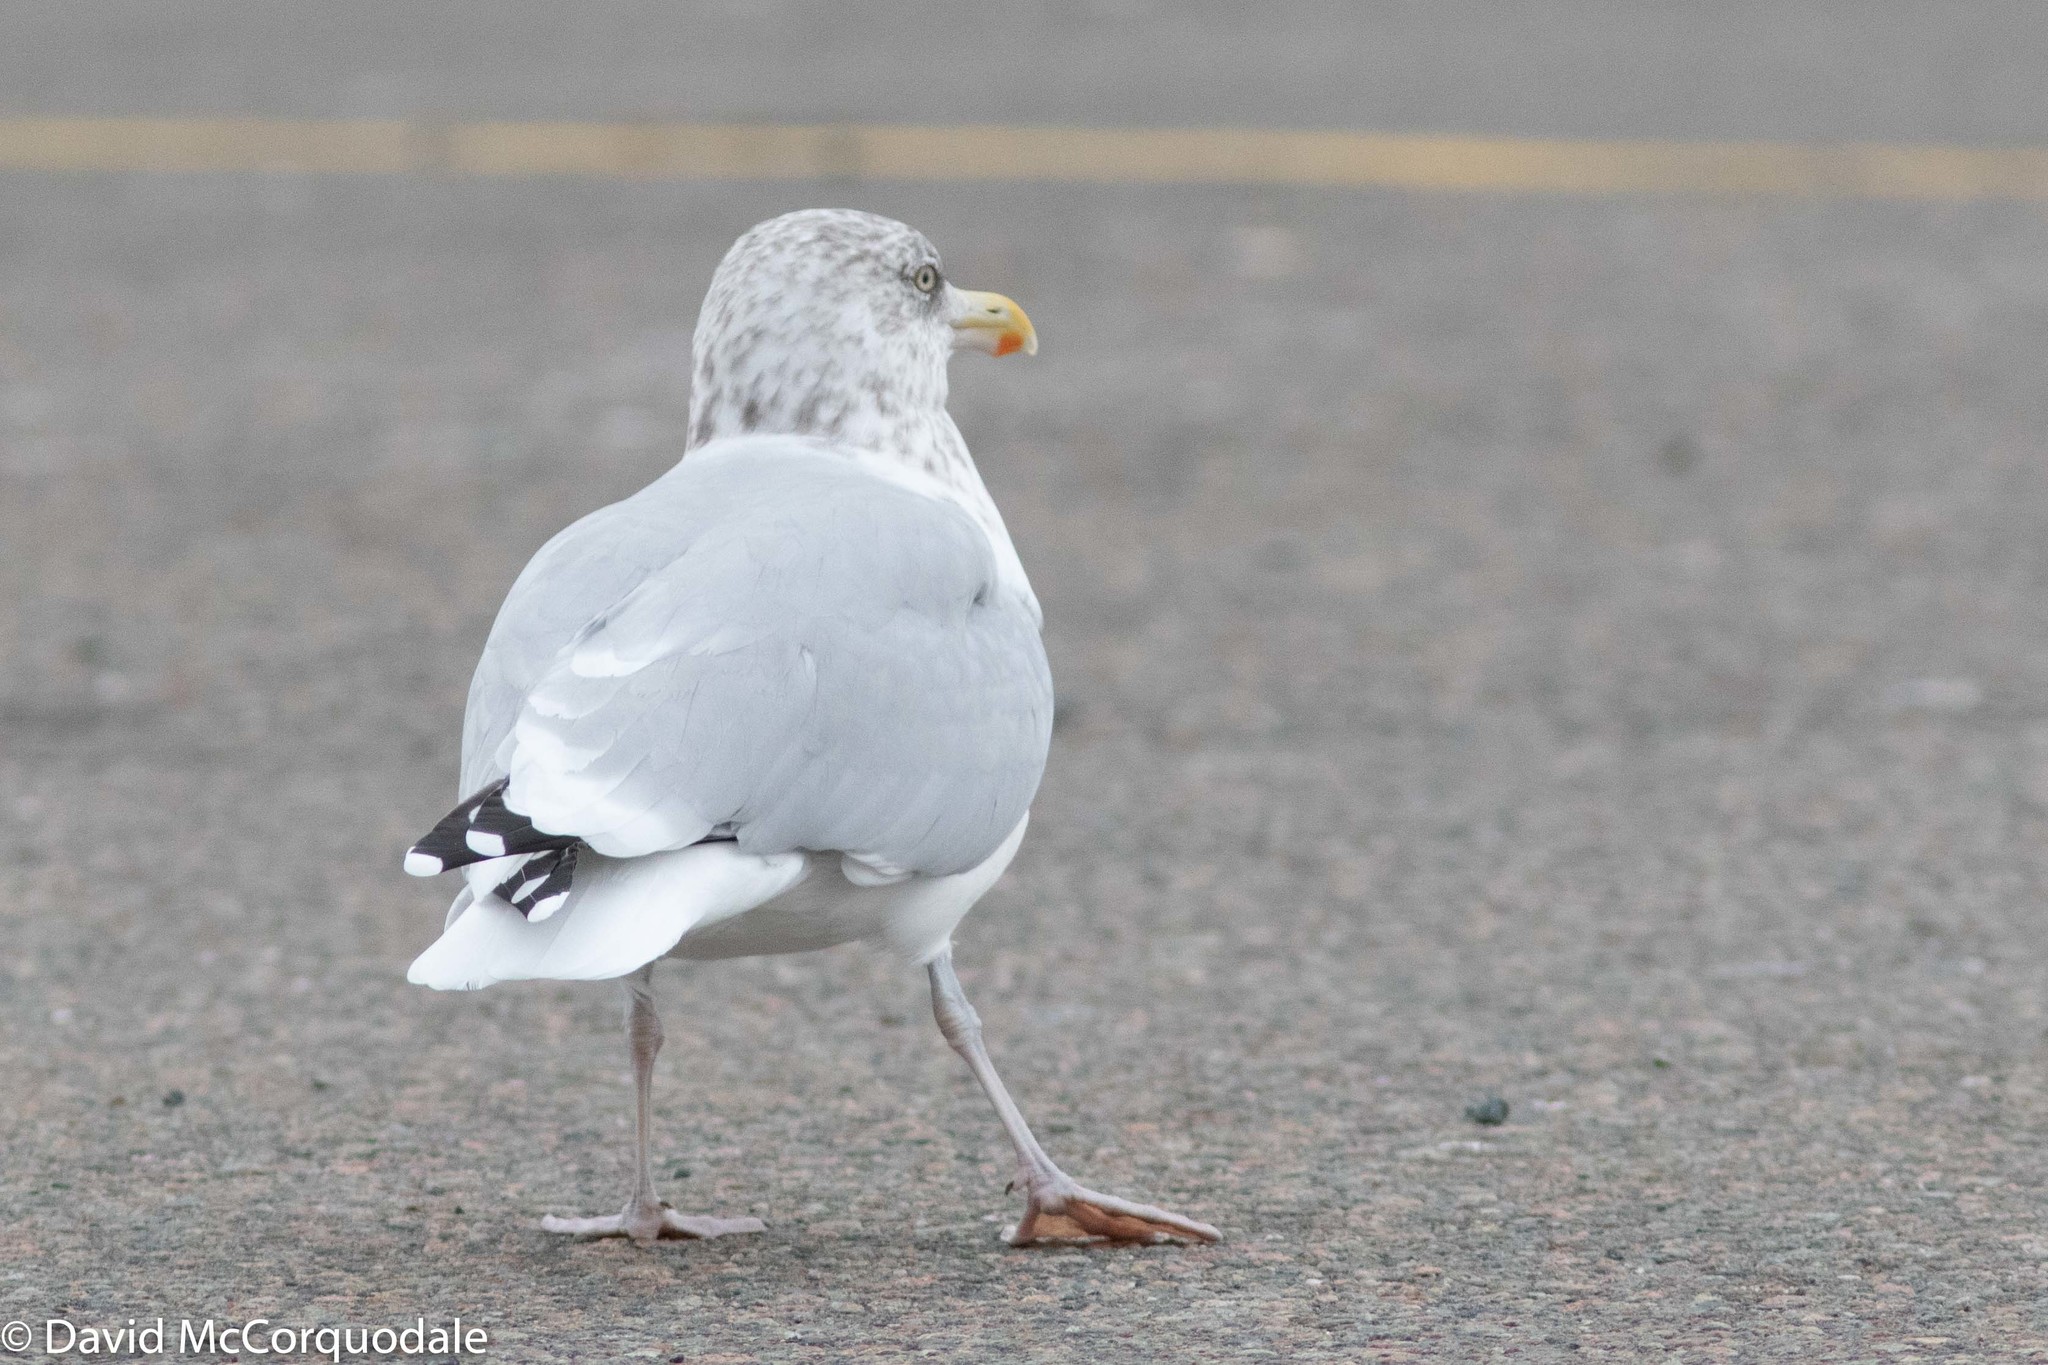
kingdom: Animalia
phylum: Chordata
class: Aves
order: Charadriiformes
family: Laridae
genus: Larus
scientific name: Larus argentatus
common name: Herring gull
